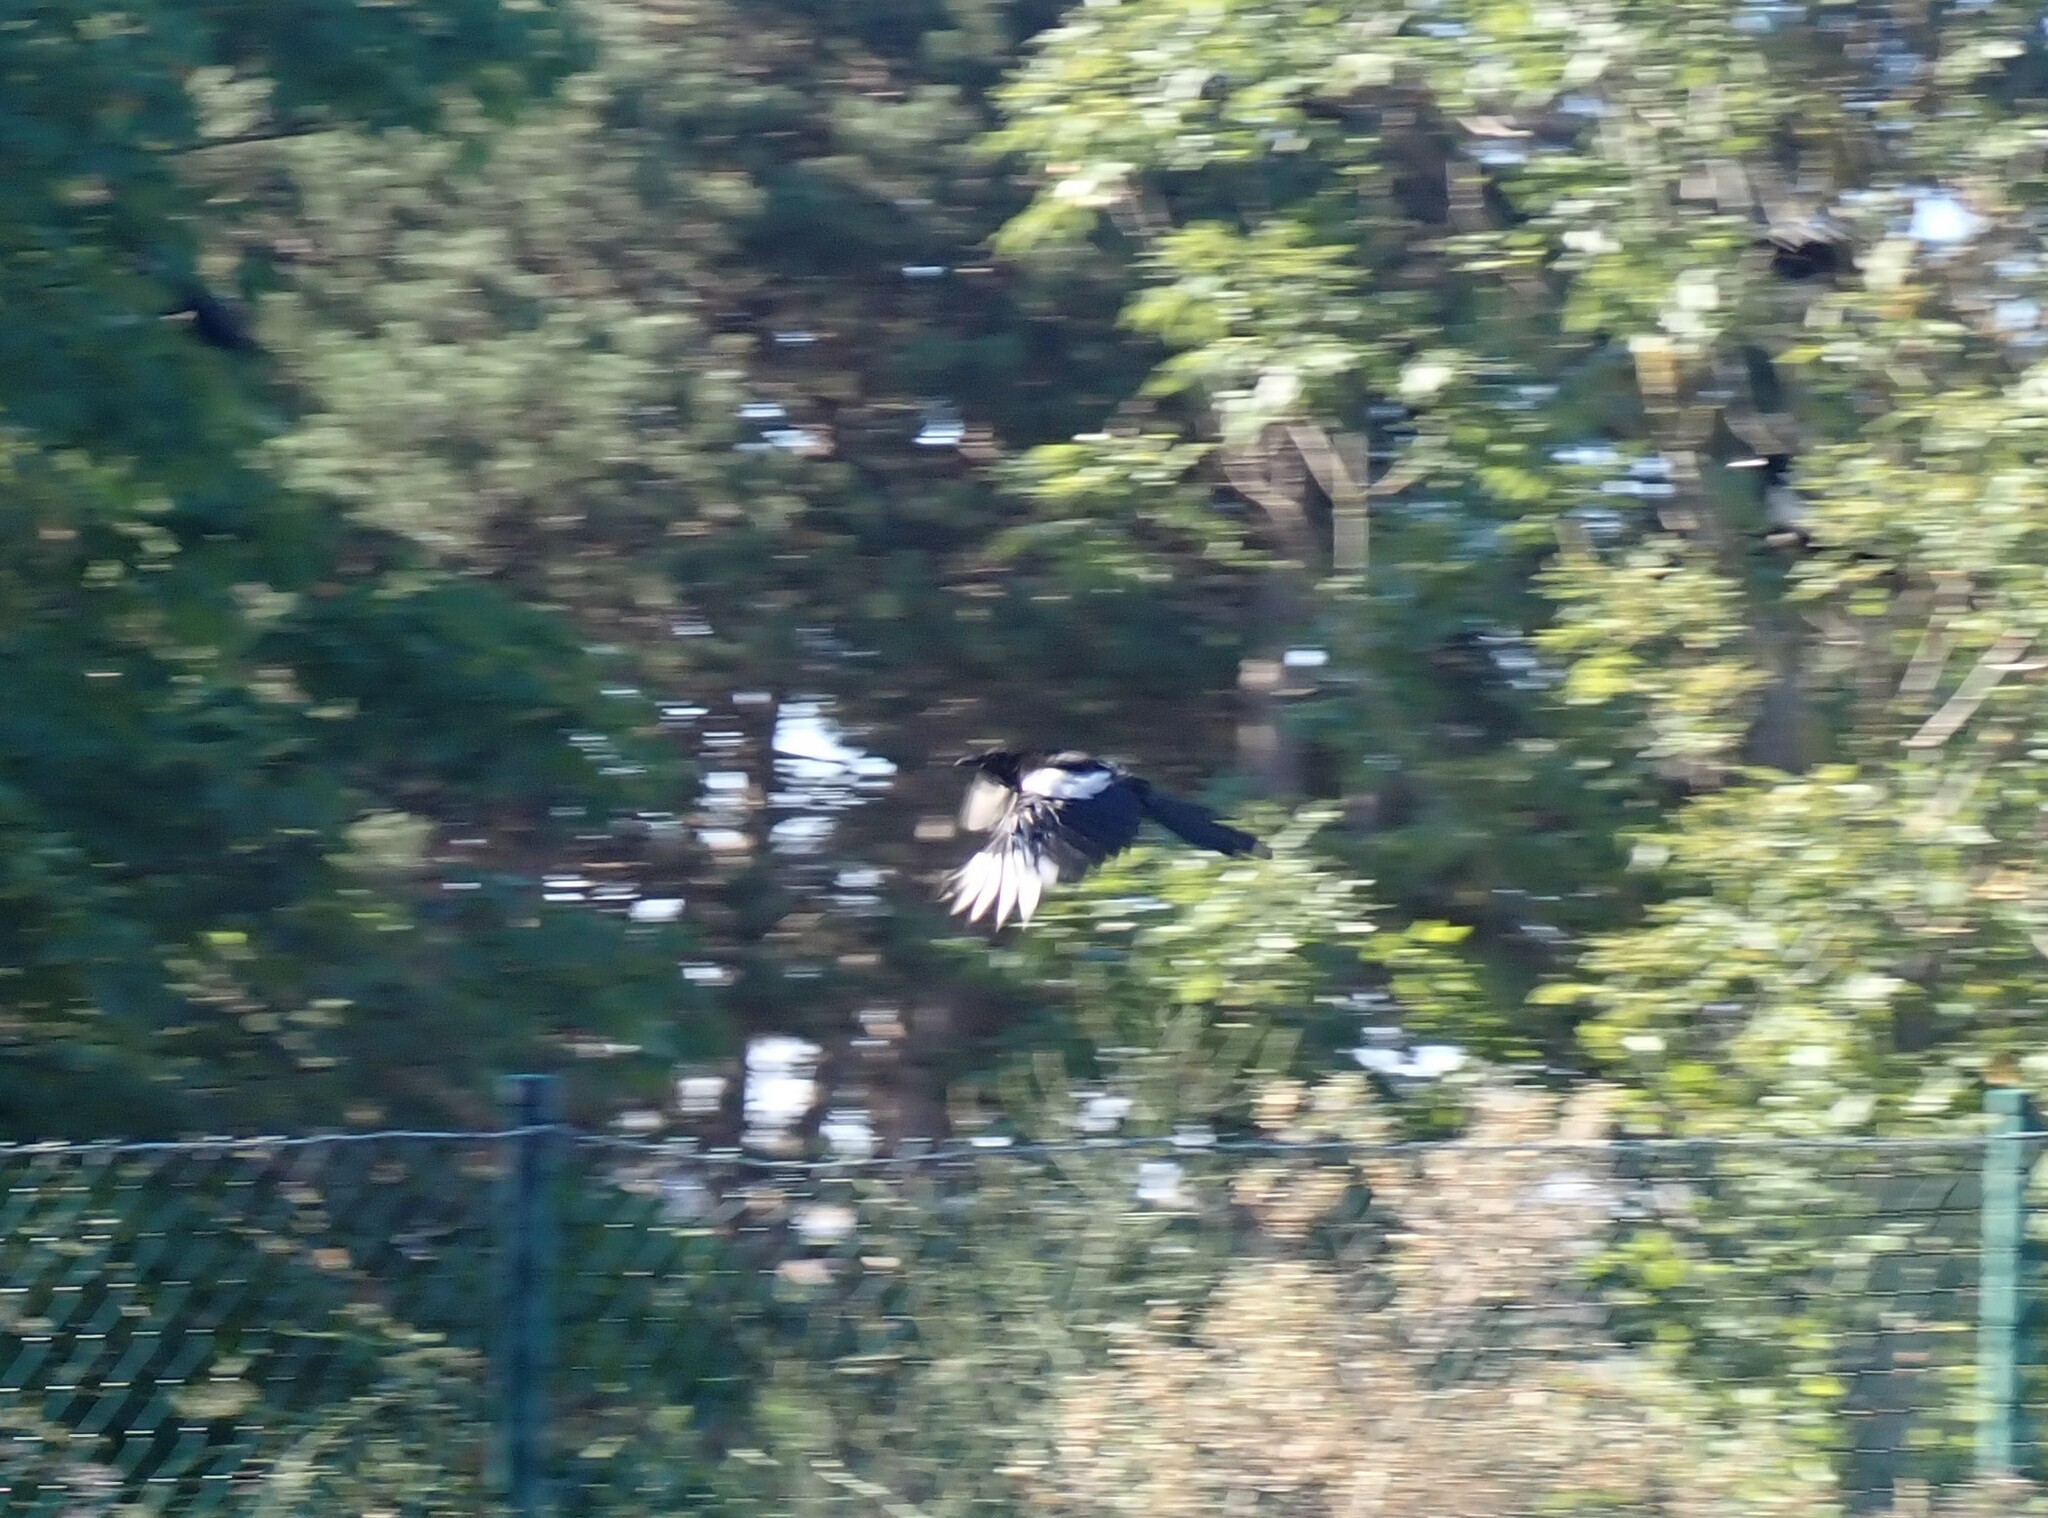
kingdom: Animalia
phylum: Chordata
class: Aves
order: Passeriformes
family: Corvidae
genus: Pica
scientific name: Pica pica
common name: Eurasian magpie
